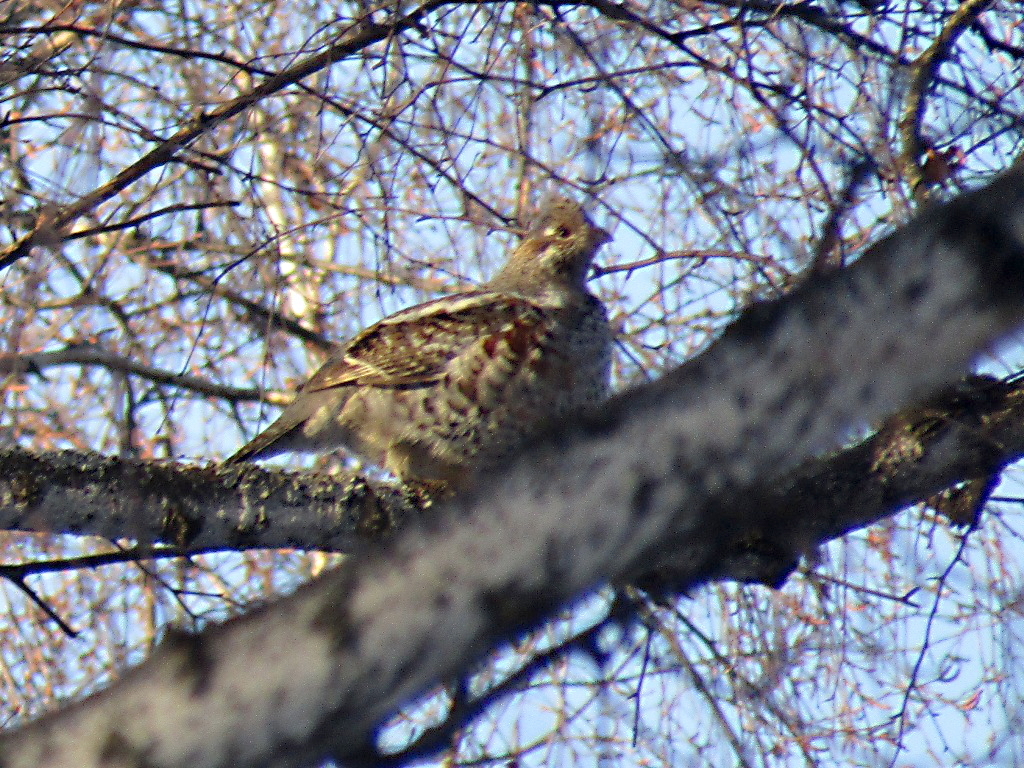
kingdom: Animalia
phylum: Chordata
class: Aves
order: Galliformes
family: Phasianidae
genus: Tetrastes
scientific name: Tetrastes bonasia
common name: Hazel grouse
